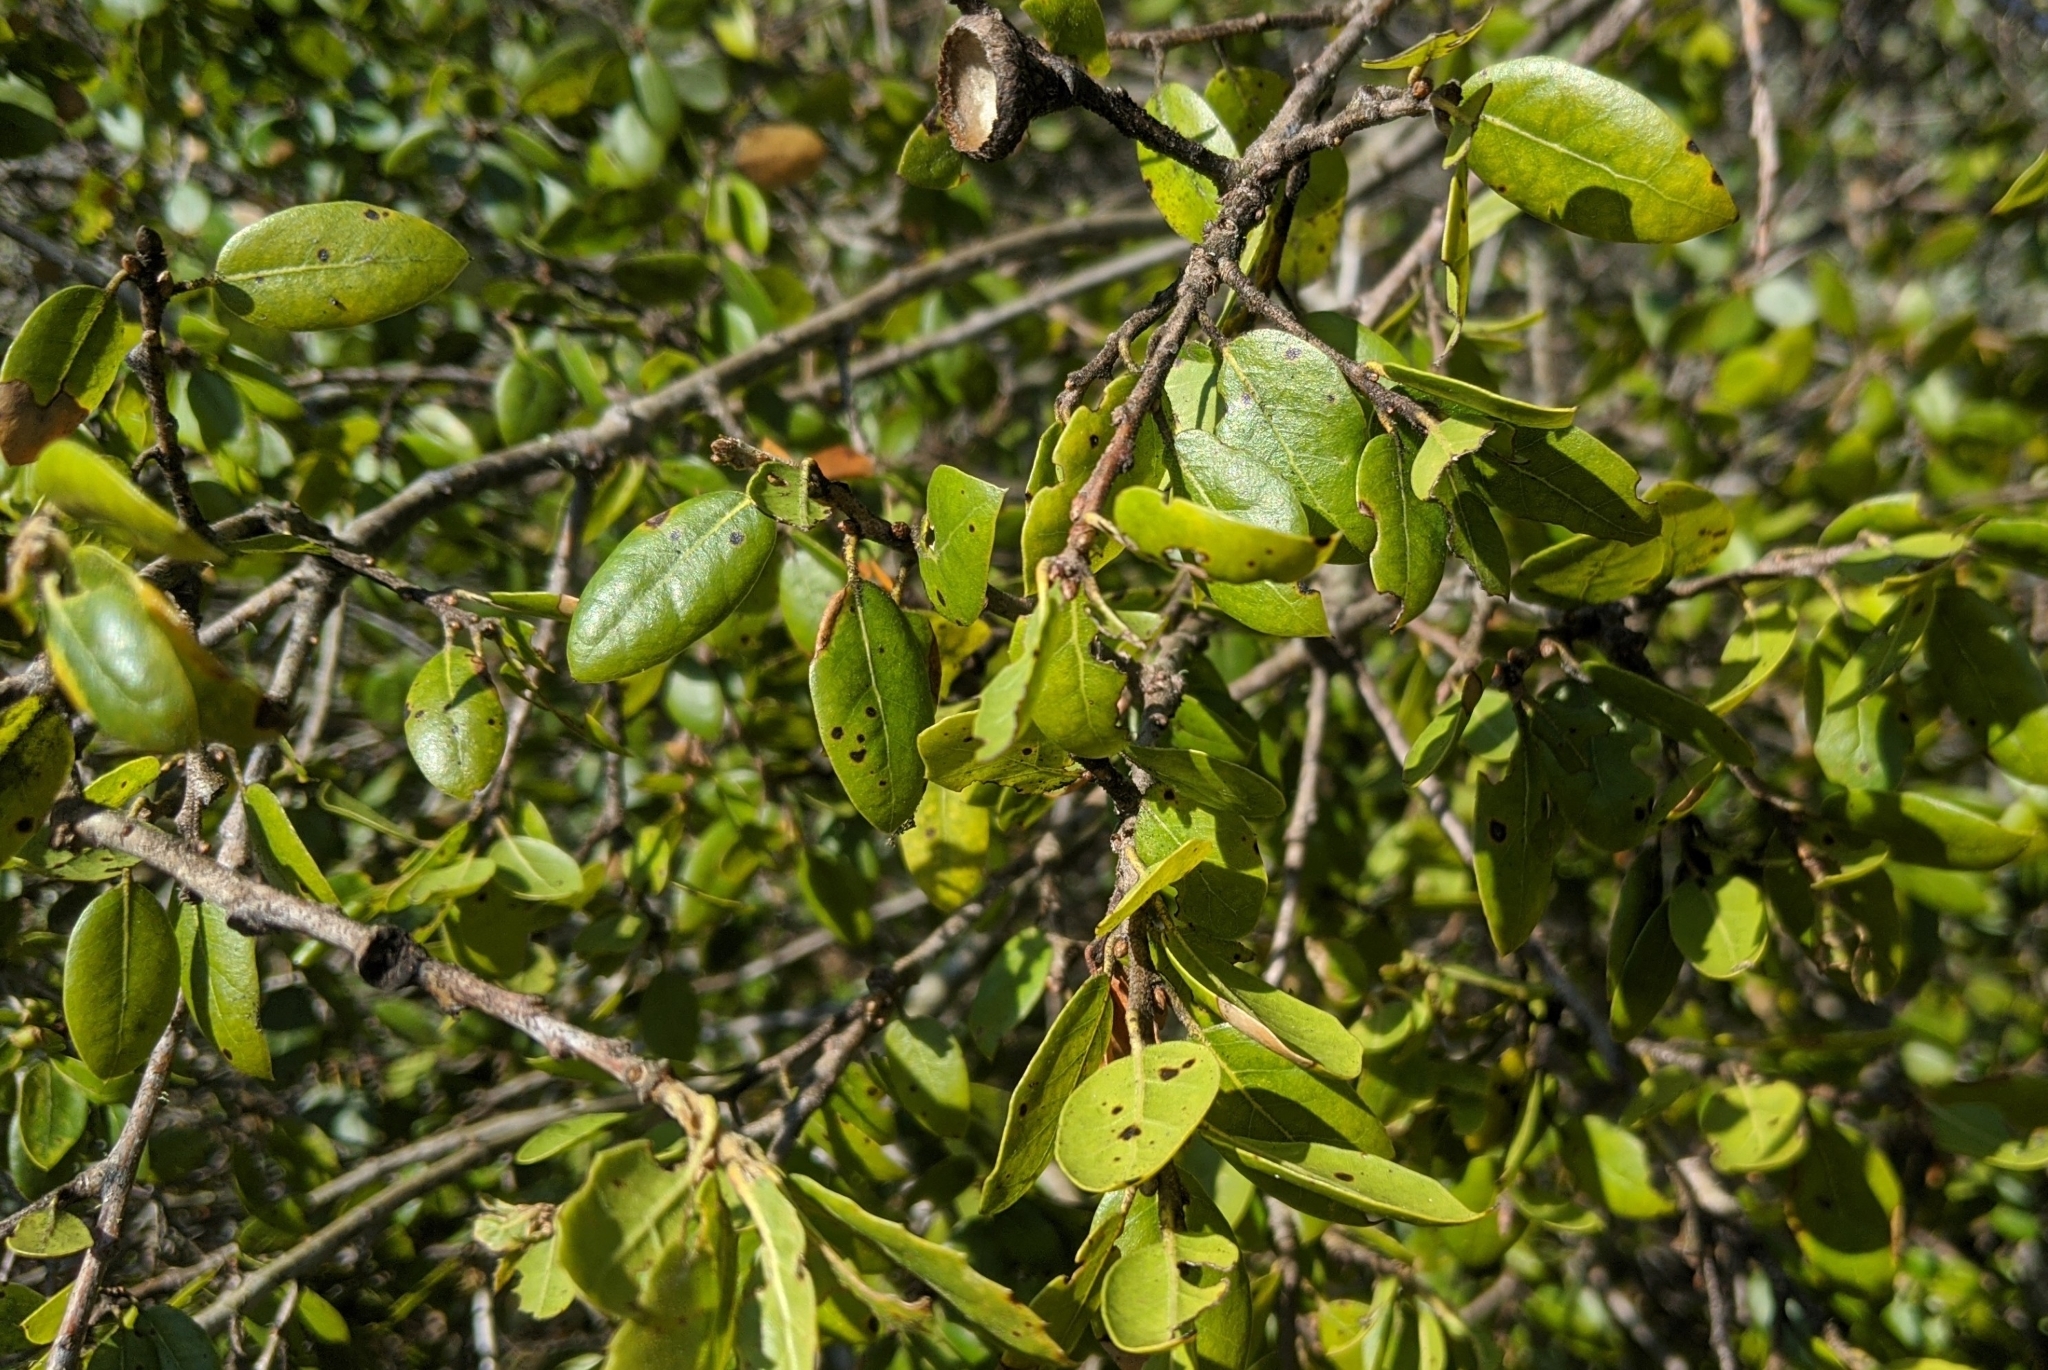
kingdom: Plantae
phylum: Tracheophyta
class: Magnoliopsida
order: Fagales
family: Fagaceae
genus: Quercus
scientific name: Quercus agrifolia
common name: California live oak
